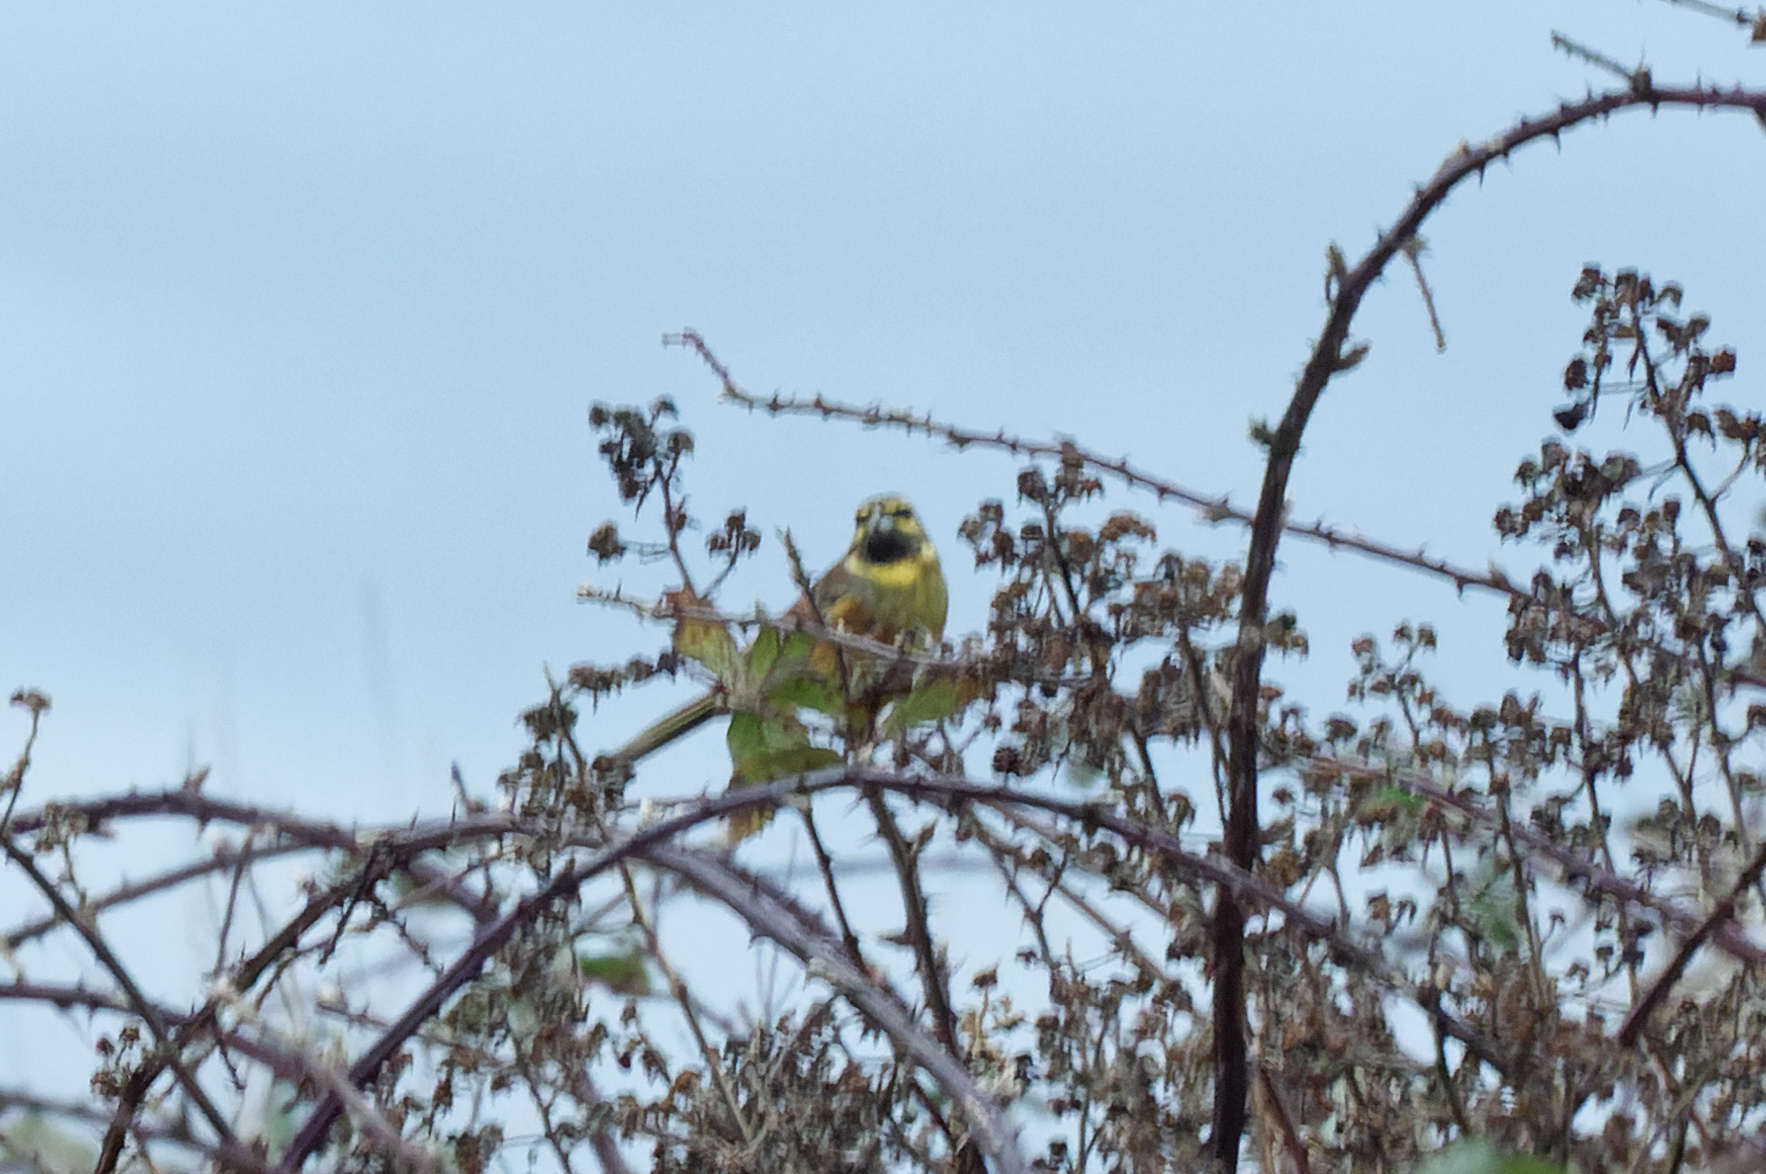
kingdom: Animalia
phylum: Chordata
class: Aves
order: Passeriformes
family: Emberizidae
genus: Emberiza
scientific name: Emberiza cirlus
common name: Cirl bunting
